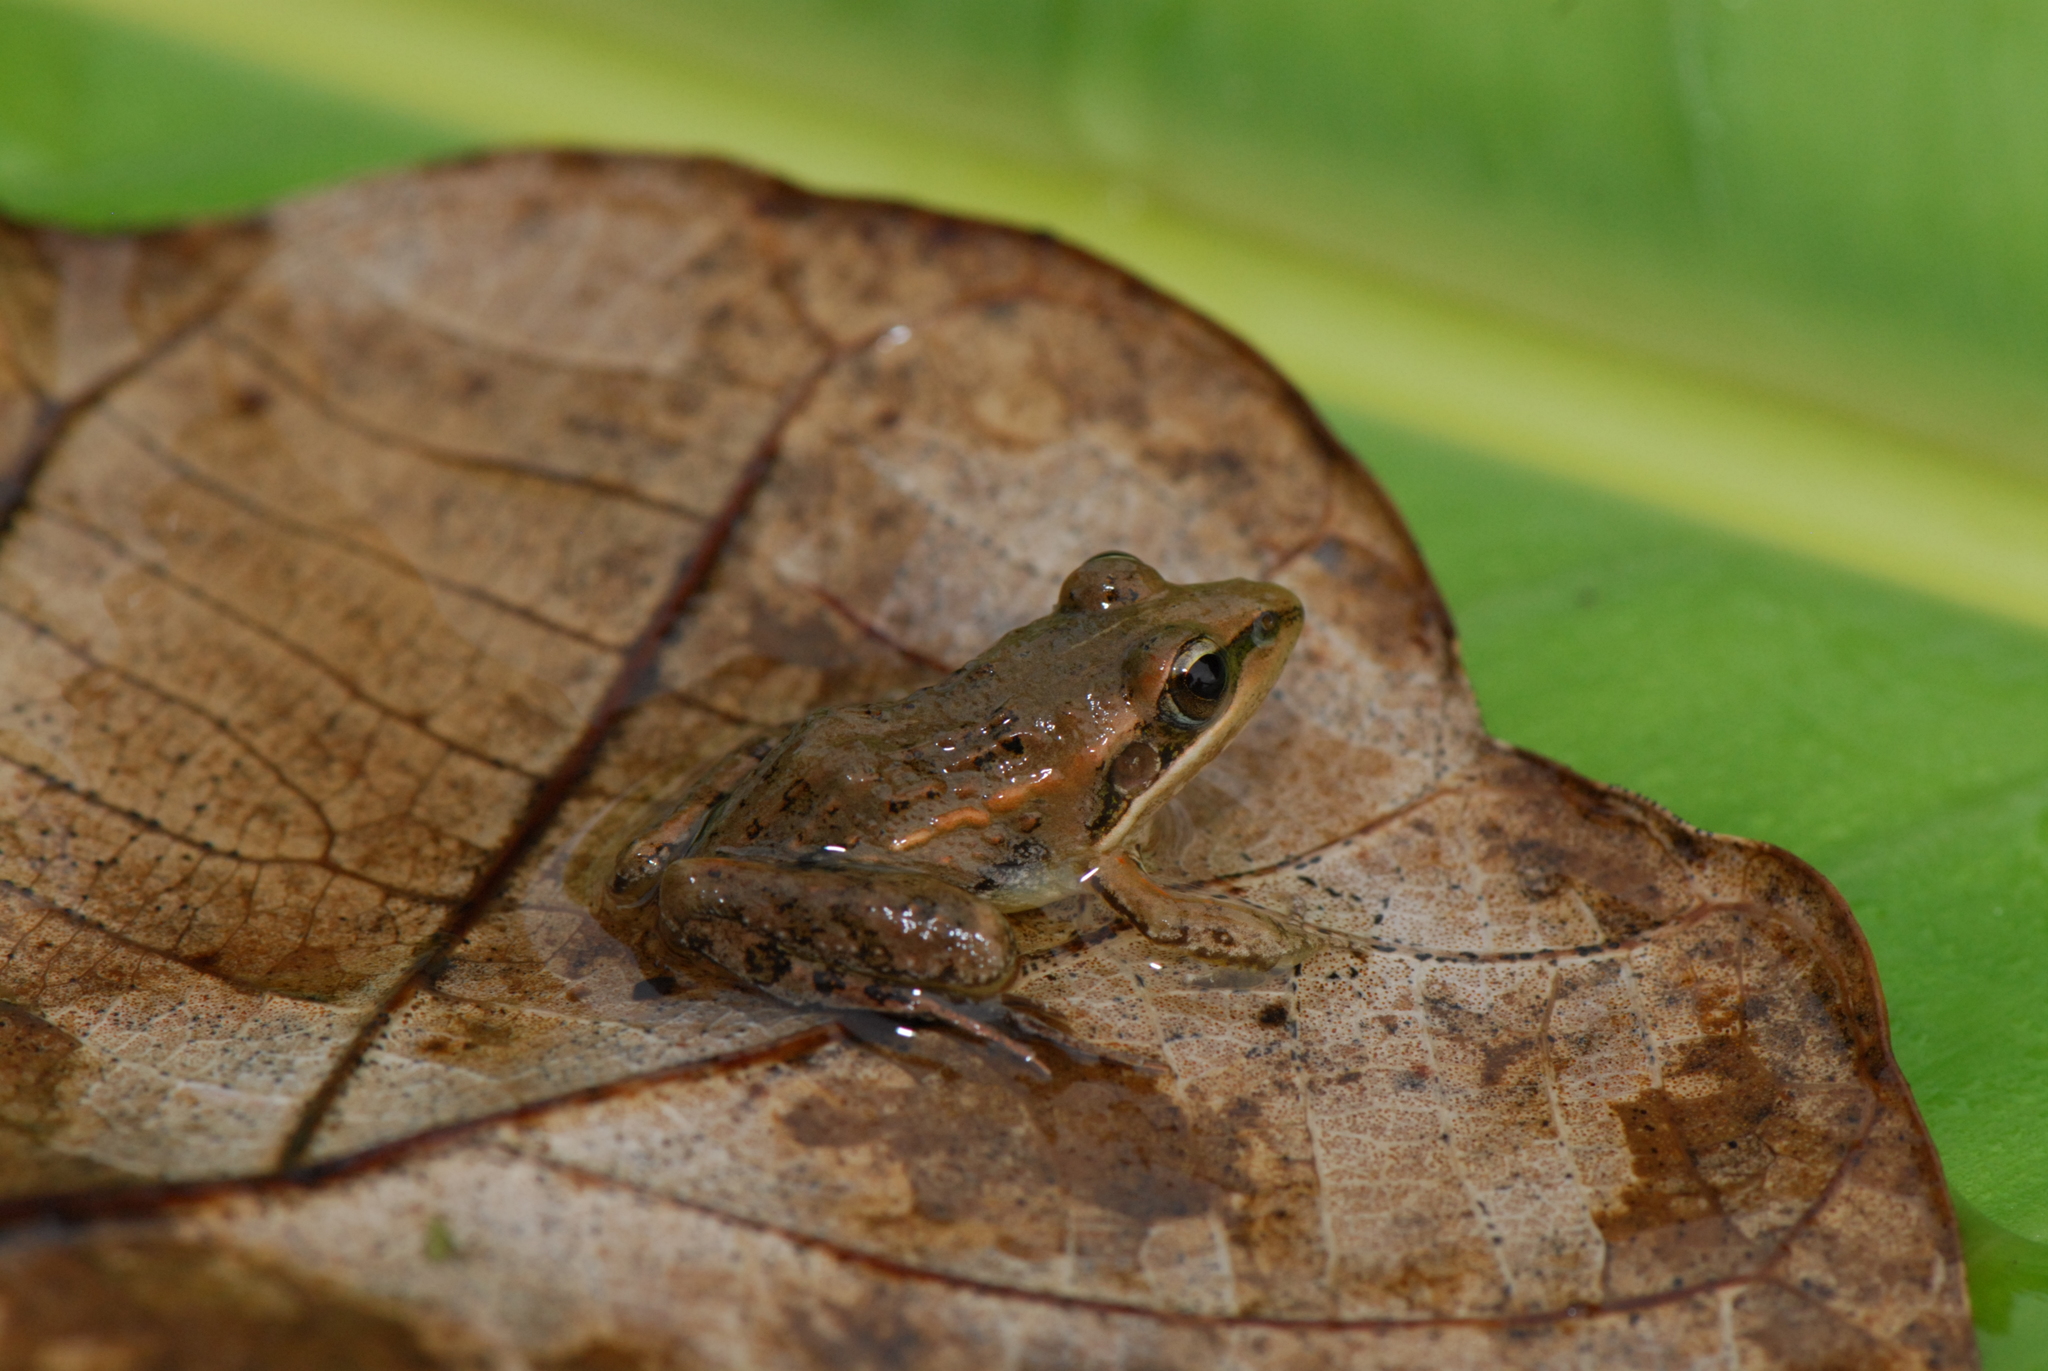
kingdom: Animalia
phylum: Chordata
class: Amphibia
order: Anura
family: Ptychadenidae
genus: Ptychadena
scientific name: Ptychadena mascareniensis
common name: Mascarene grass frog
